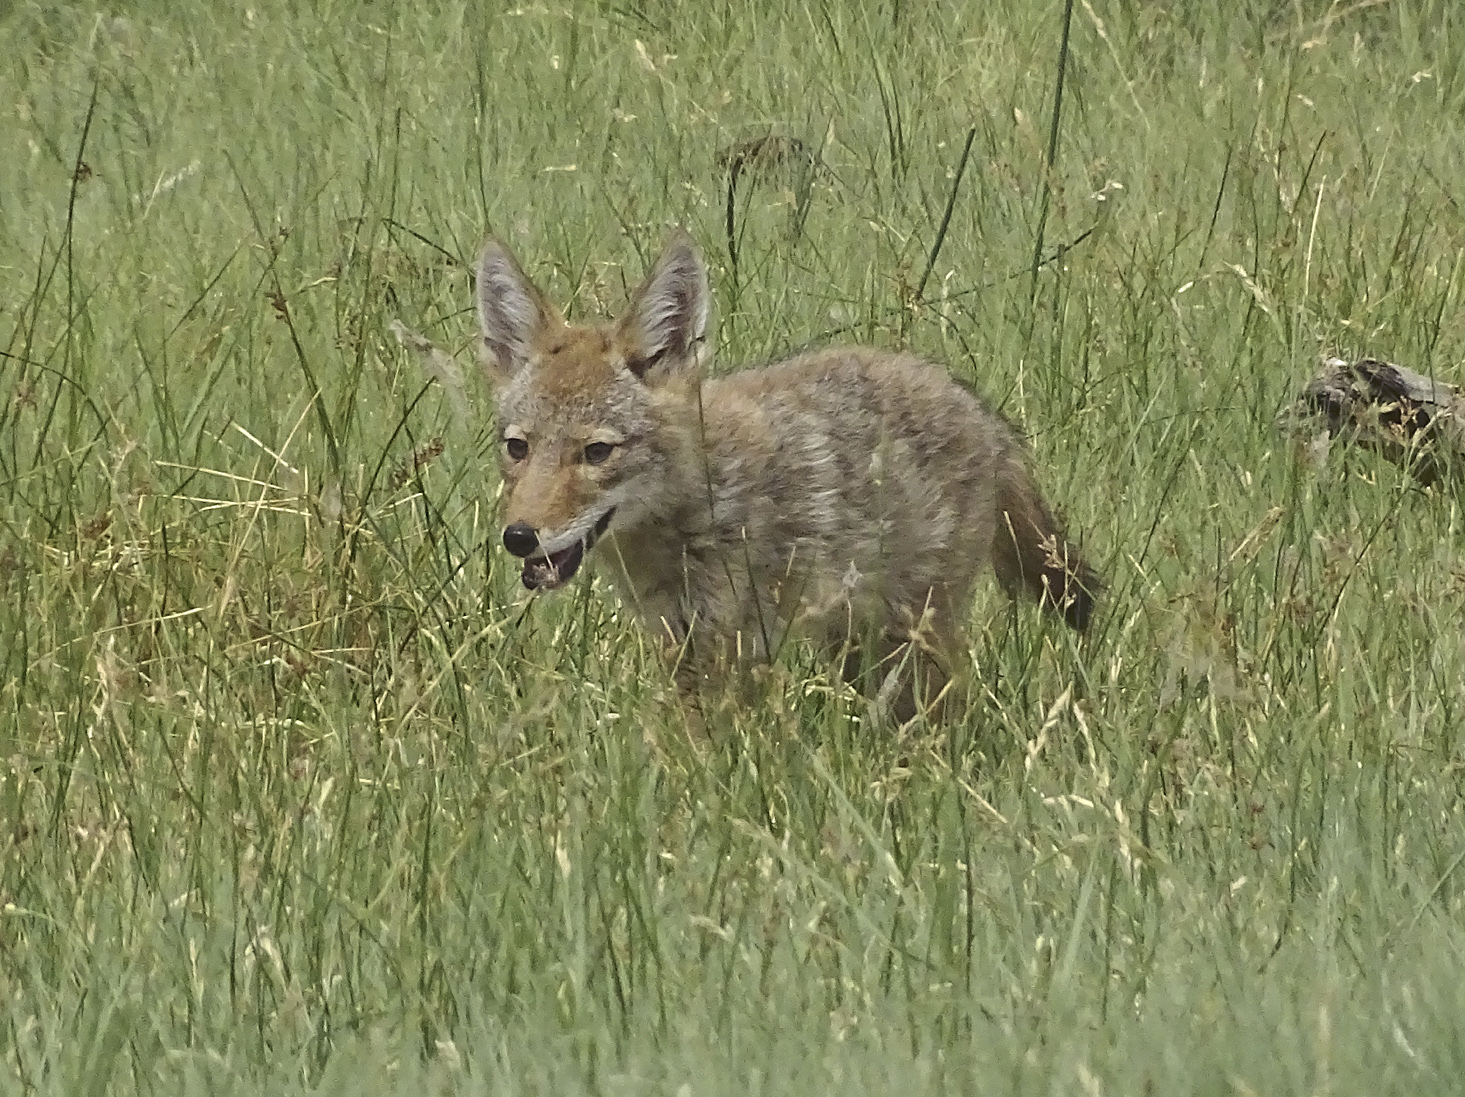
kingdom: Animalia
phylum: Chordata
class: Mammalia
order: Carnivora
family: Canidae
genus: Canis
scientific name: Canis latrans
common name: Coyote
